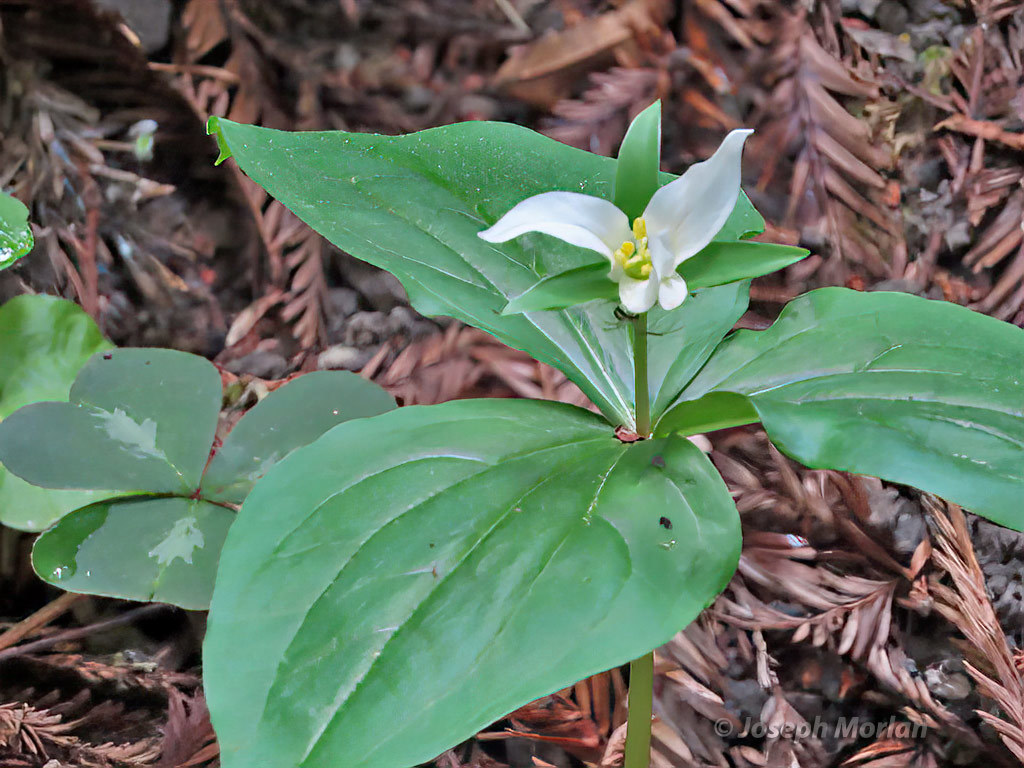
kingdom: Plantae
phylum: Tracheophyta
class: Liliopsida
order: Liliales
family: Melanthiaceae
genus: Trillium
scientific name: Trillium ovatum
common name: Pacific trillium
